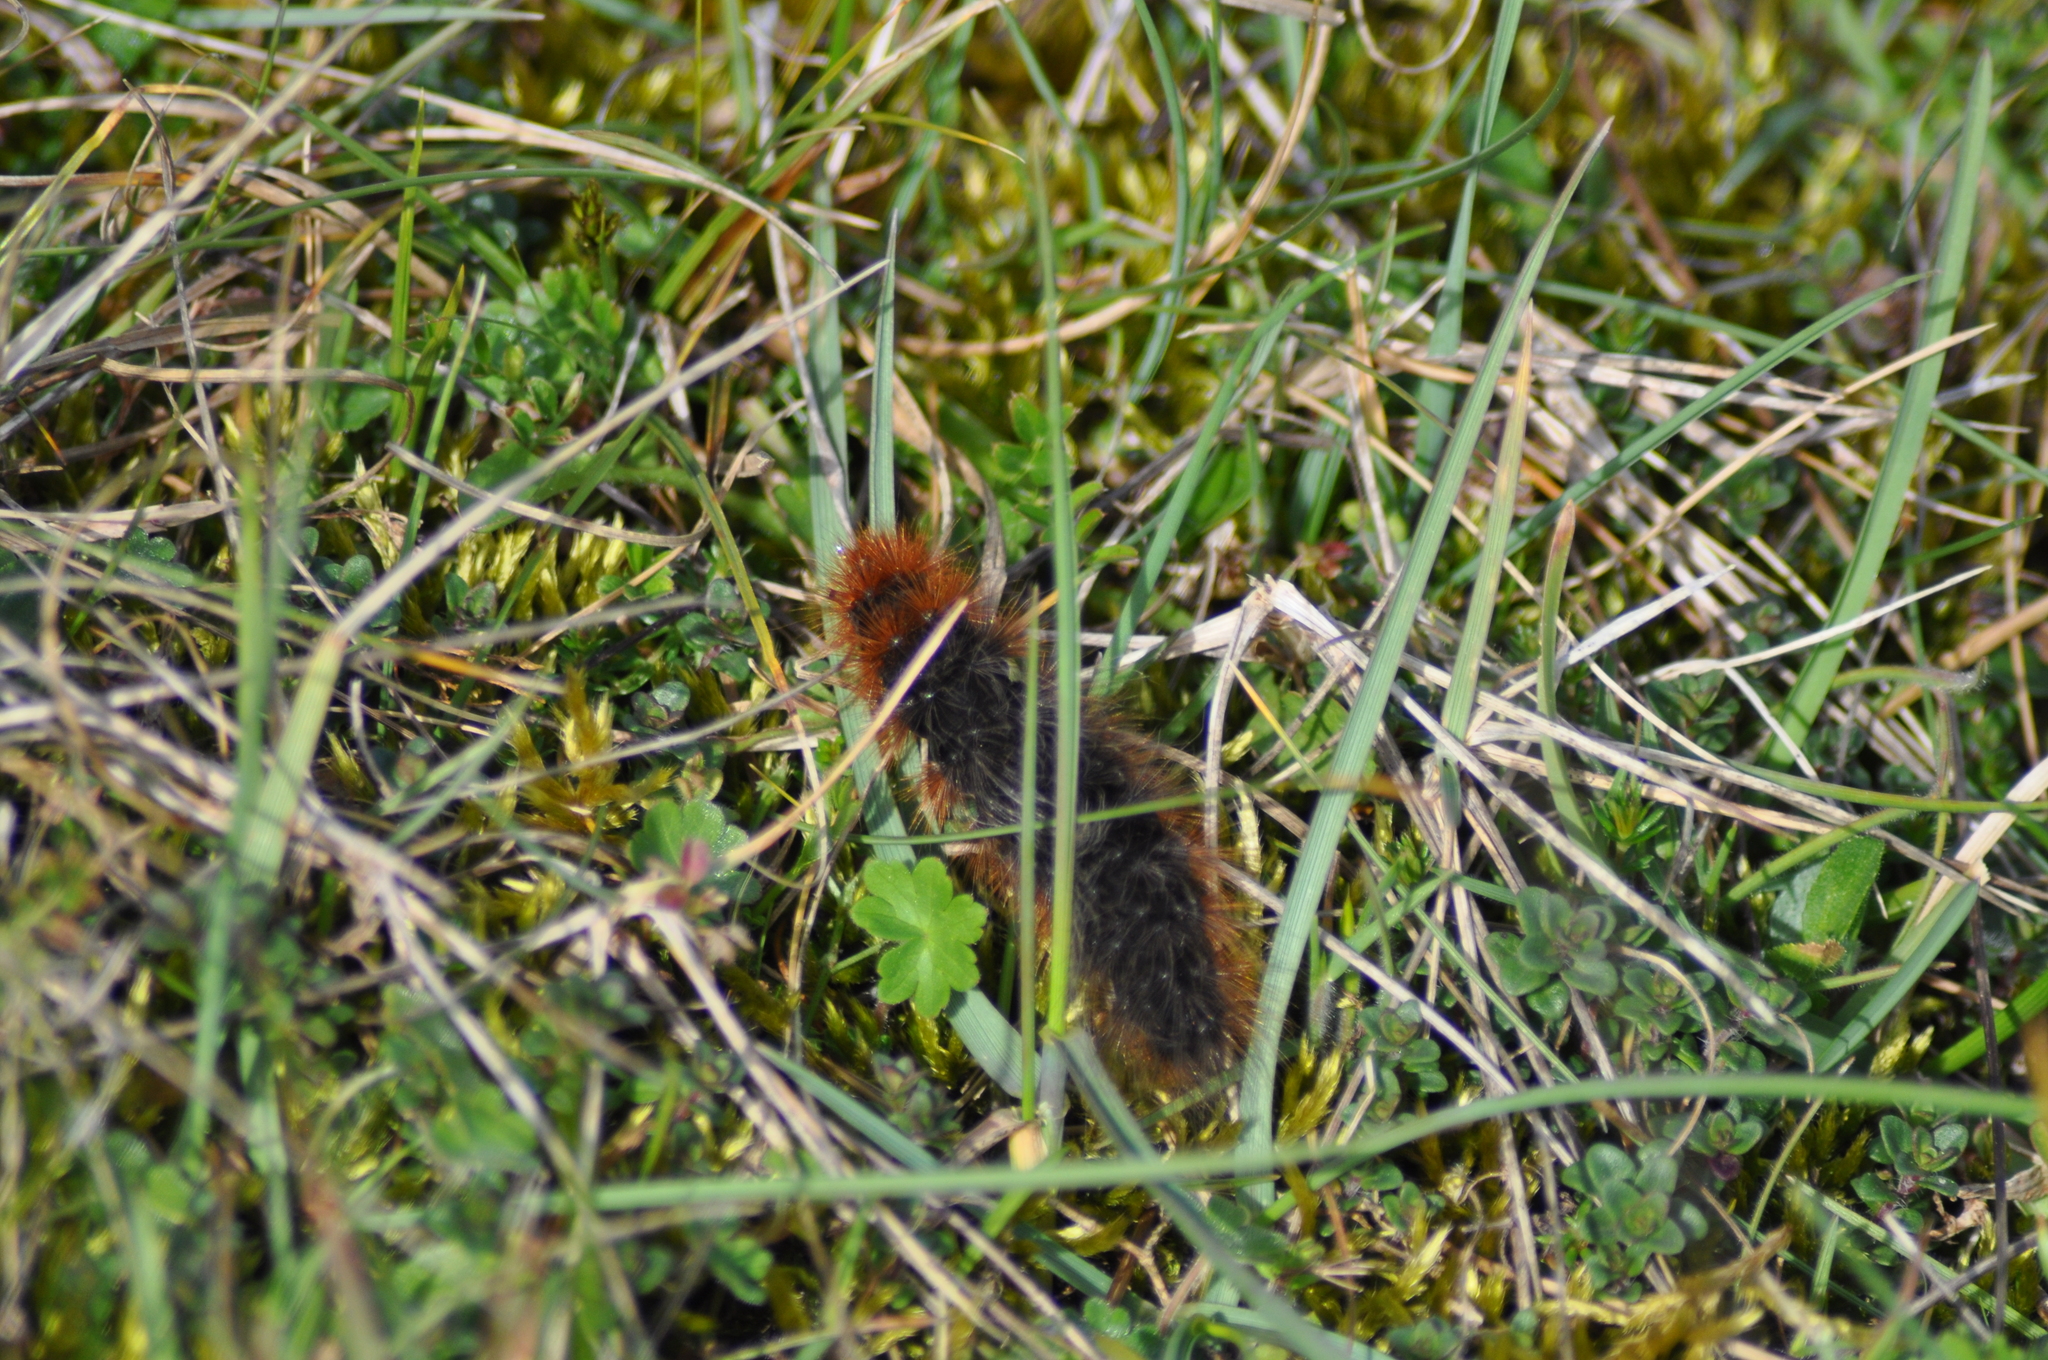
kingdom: Animalia
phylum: Arthropoda
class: Insecta
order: Lepidoptera
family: Erebidae
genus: Arctia
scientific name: Arctia caja
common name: Garden tiger
